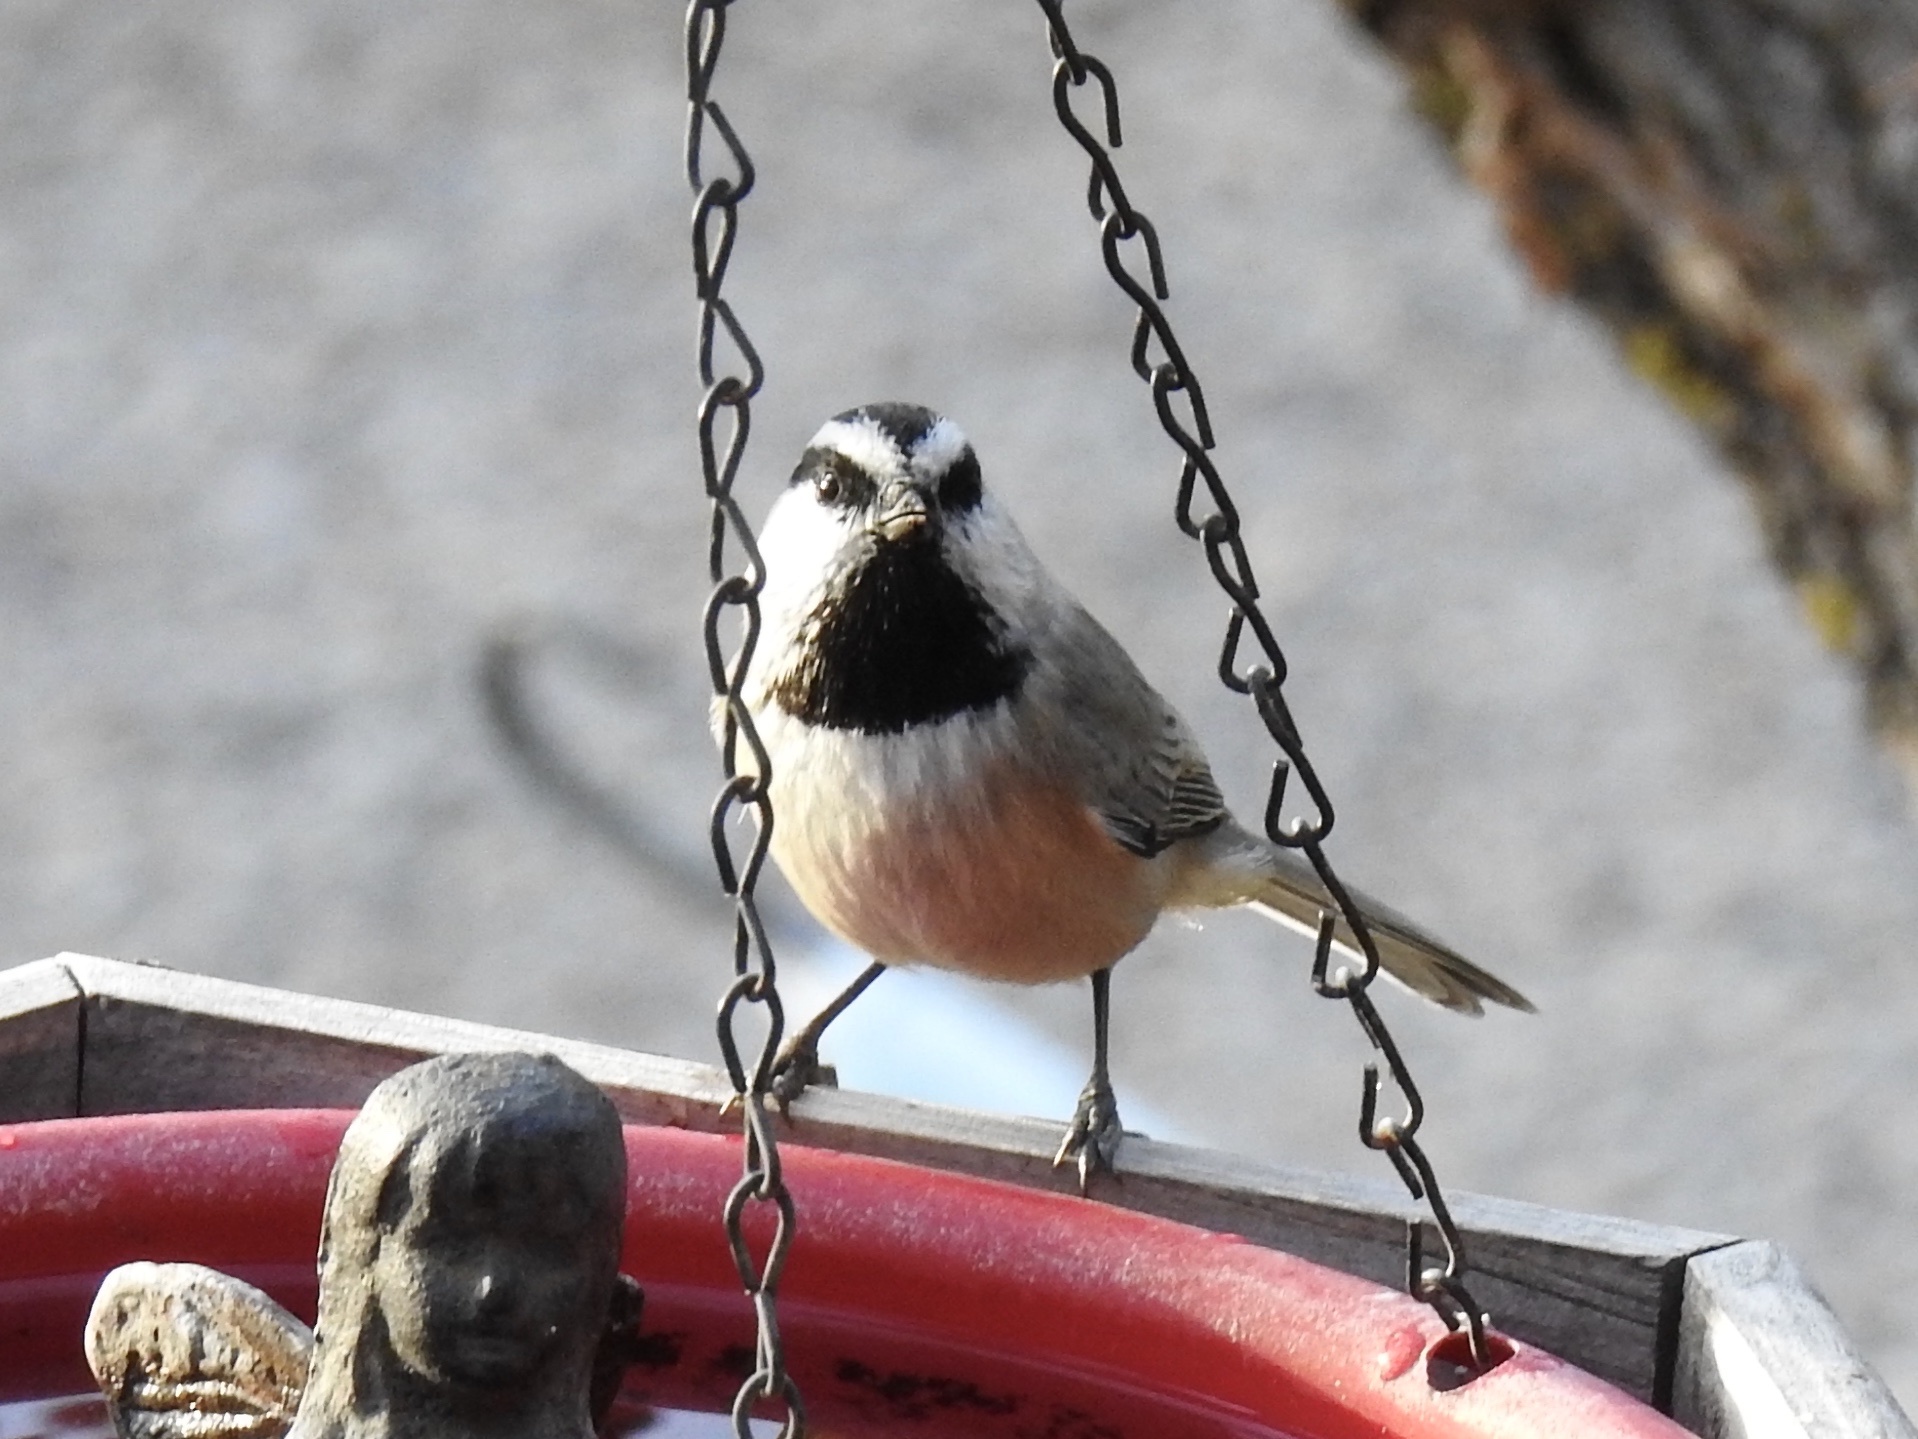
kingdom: Animalia
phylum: Chordata
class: Aves
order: Passeriformes
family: Paridae
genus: Poecile
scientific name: Poecile gambeli
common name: Mountain chickadee
